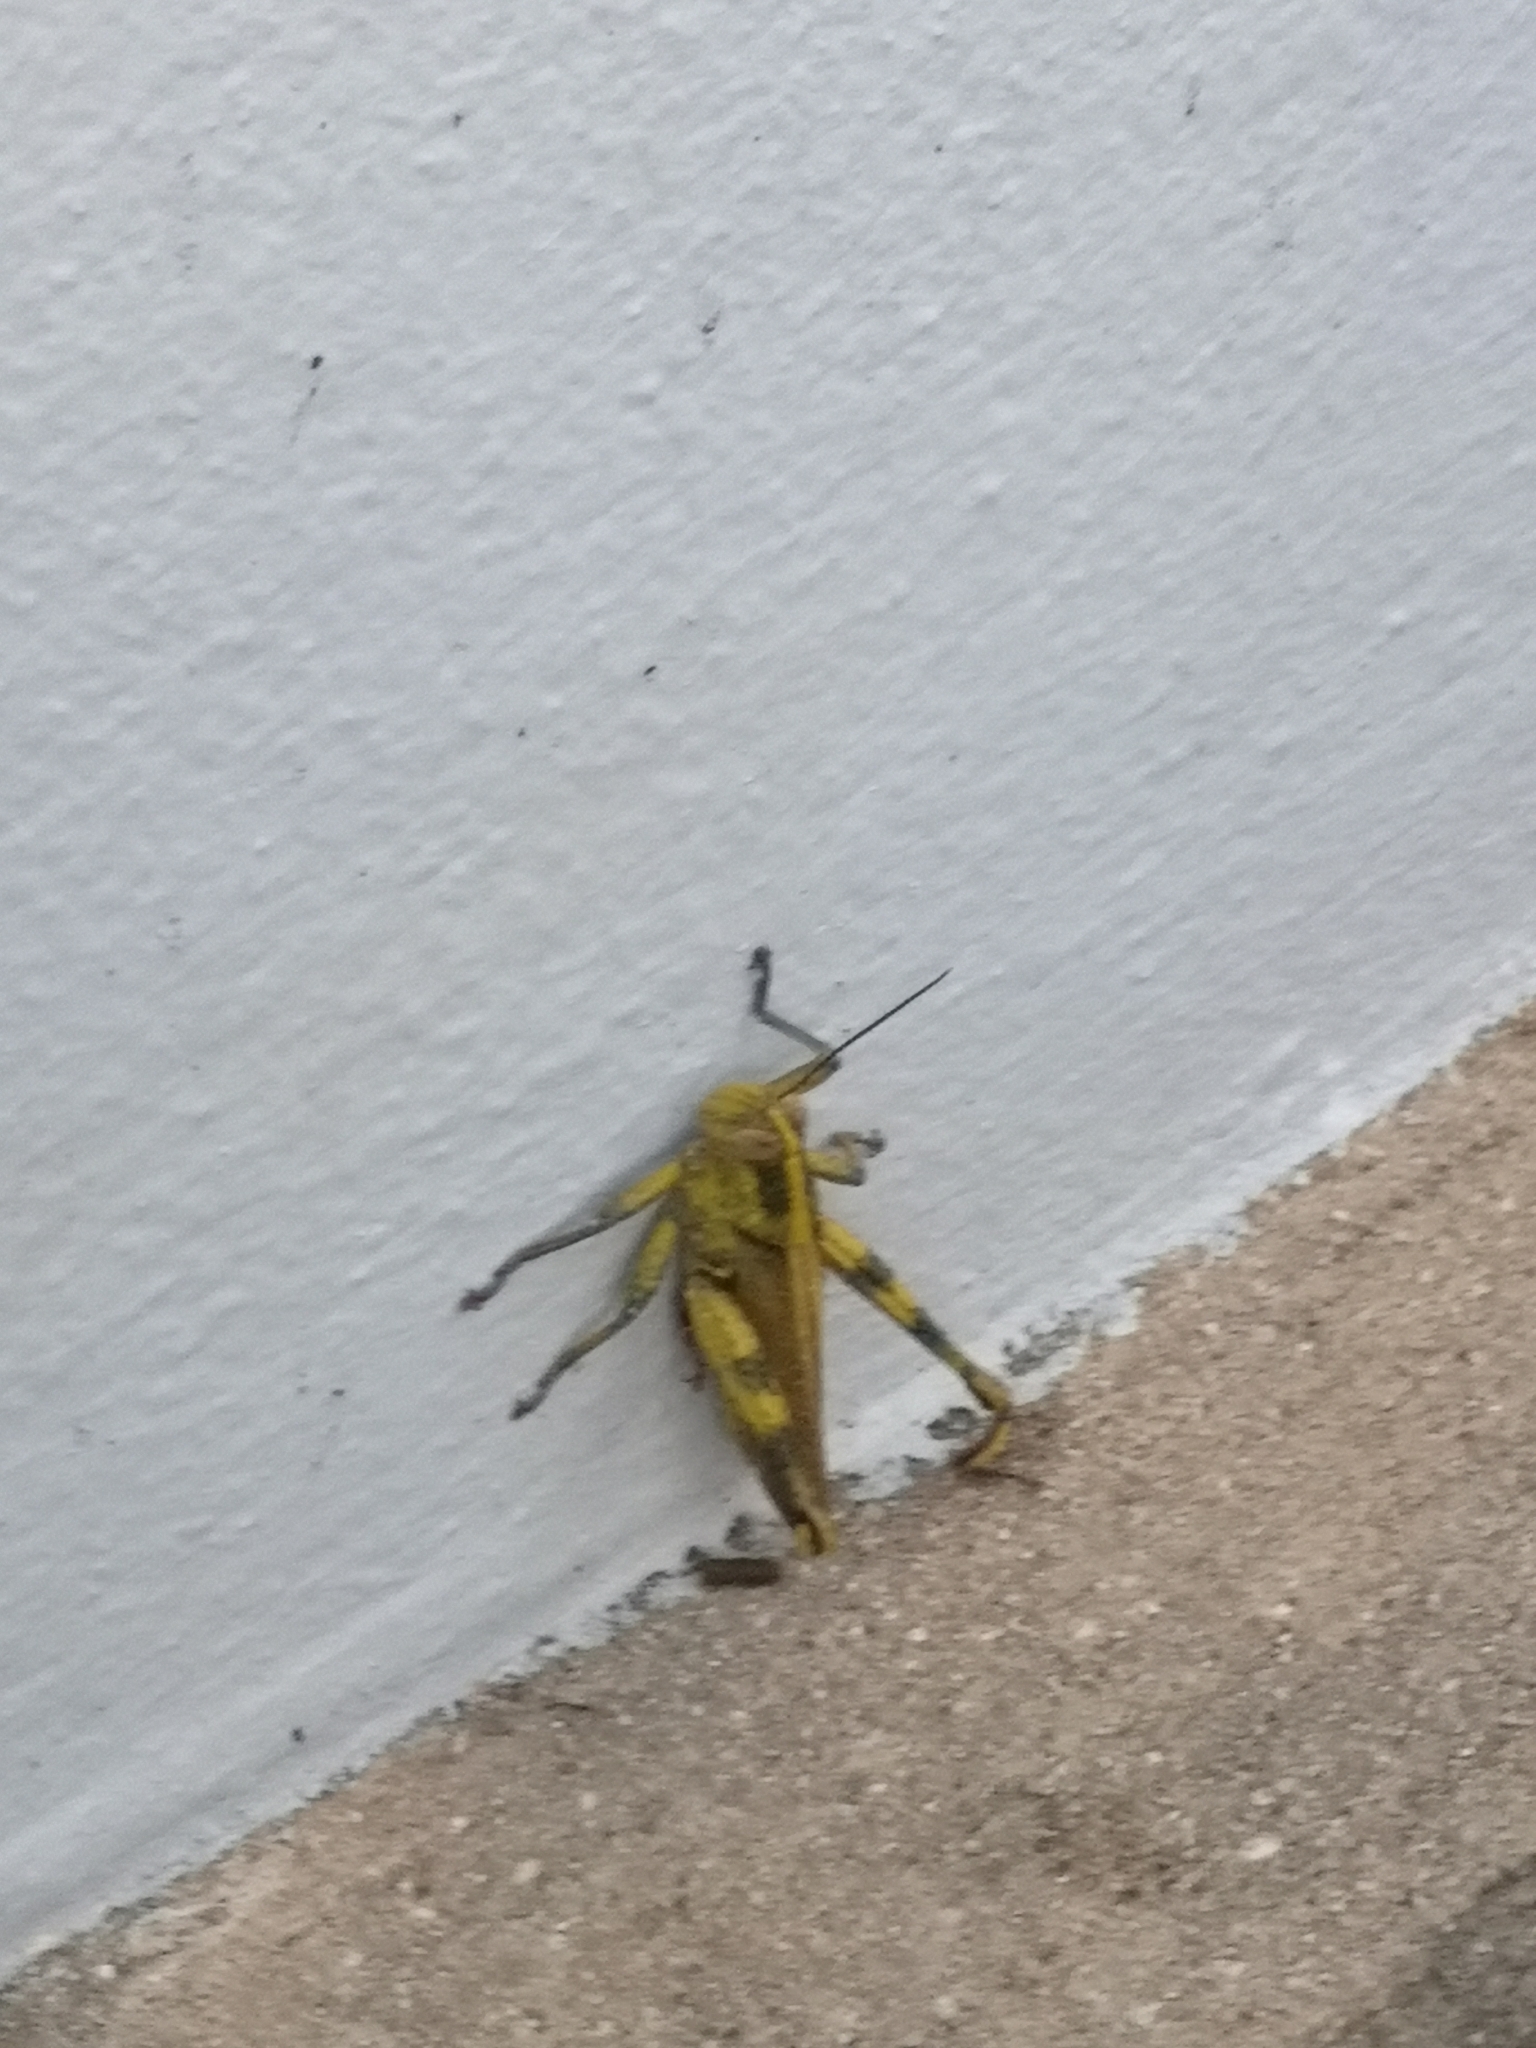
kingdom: Animalia
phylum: Arthropoda
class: Insecta
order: Orthoptera
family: Acrididae
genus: Valanga
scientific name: Valanga nigricornis
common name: Javanese bird grasshopper
